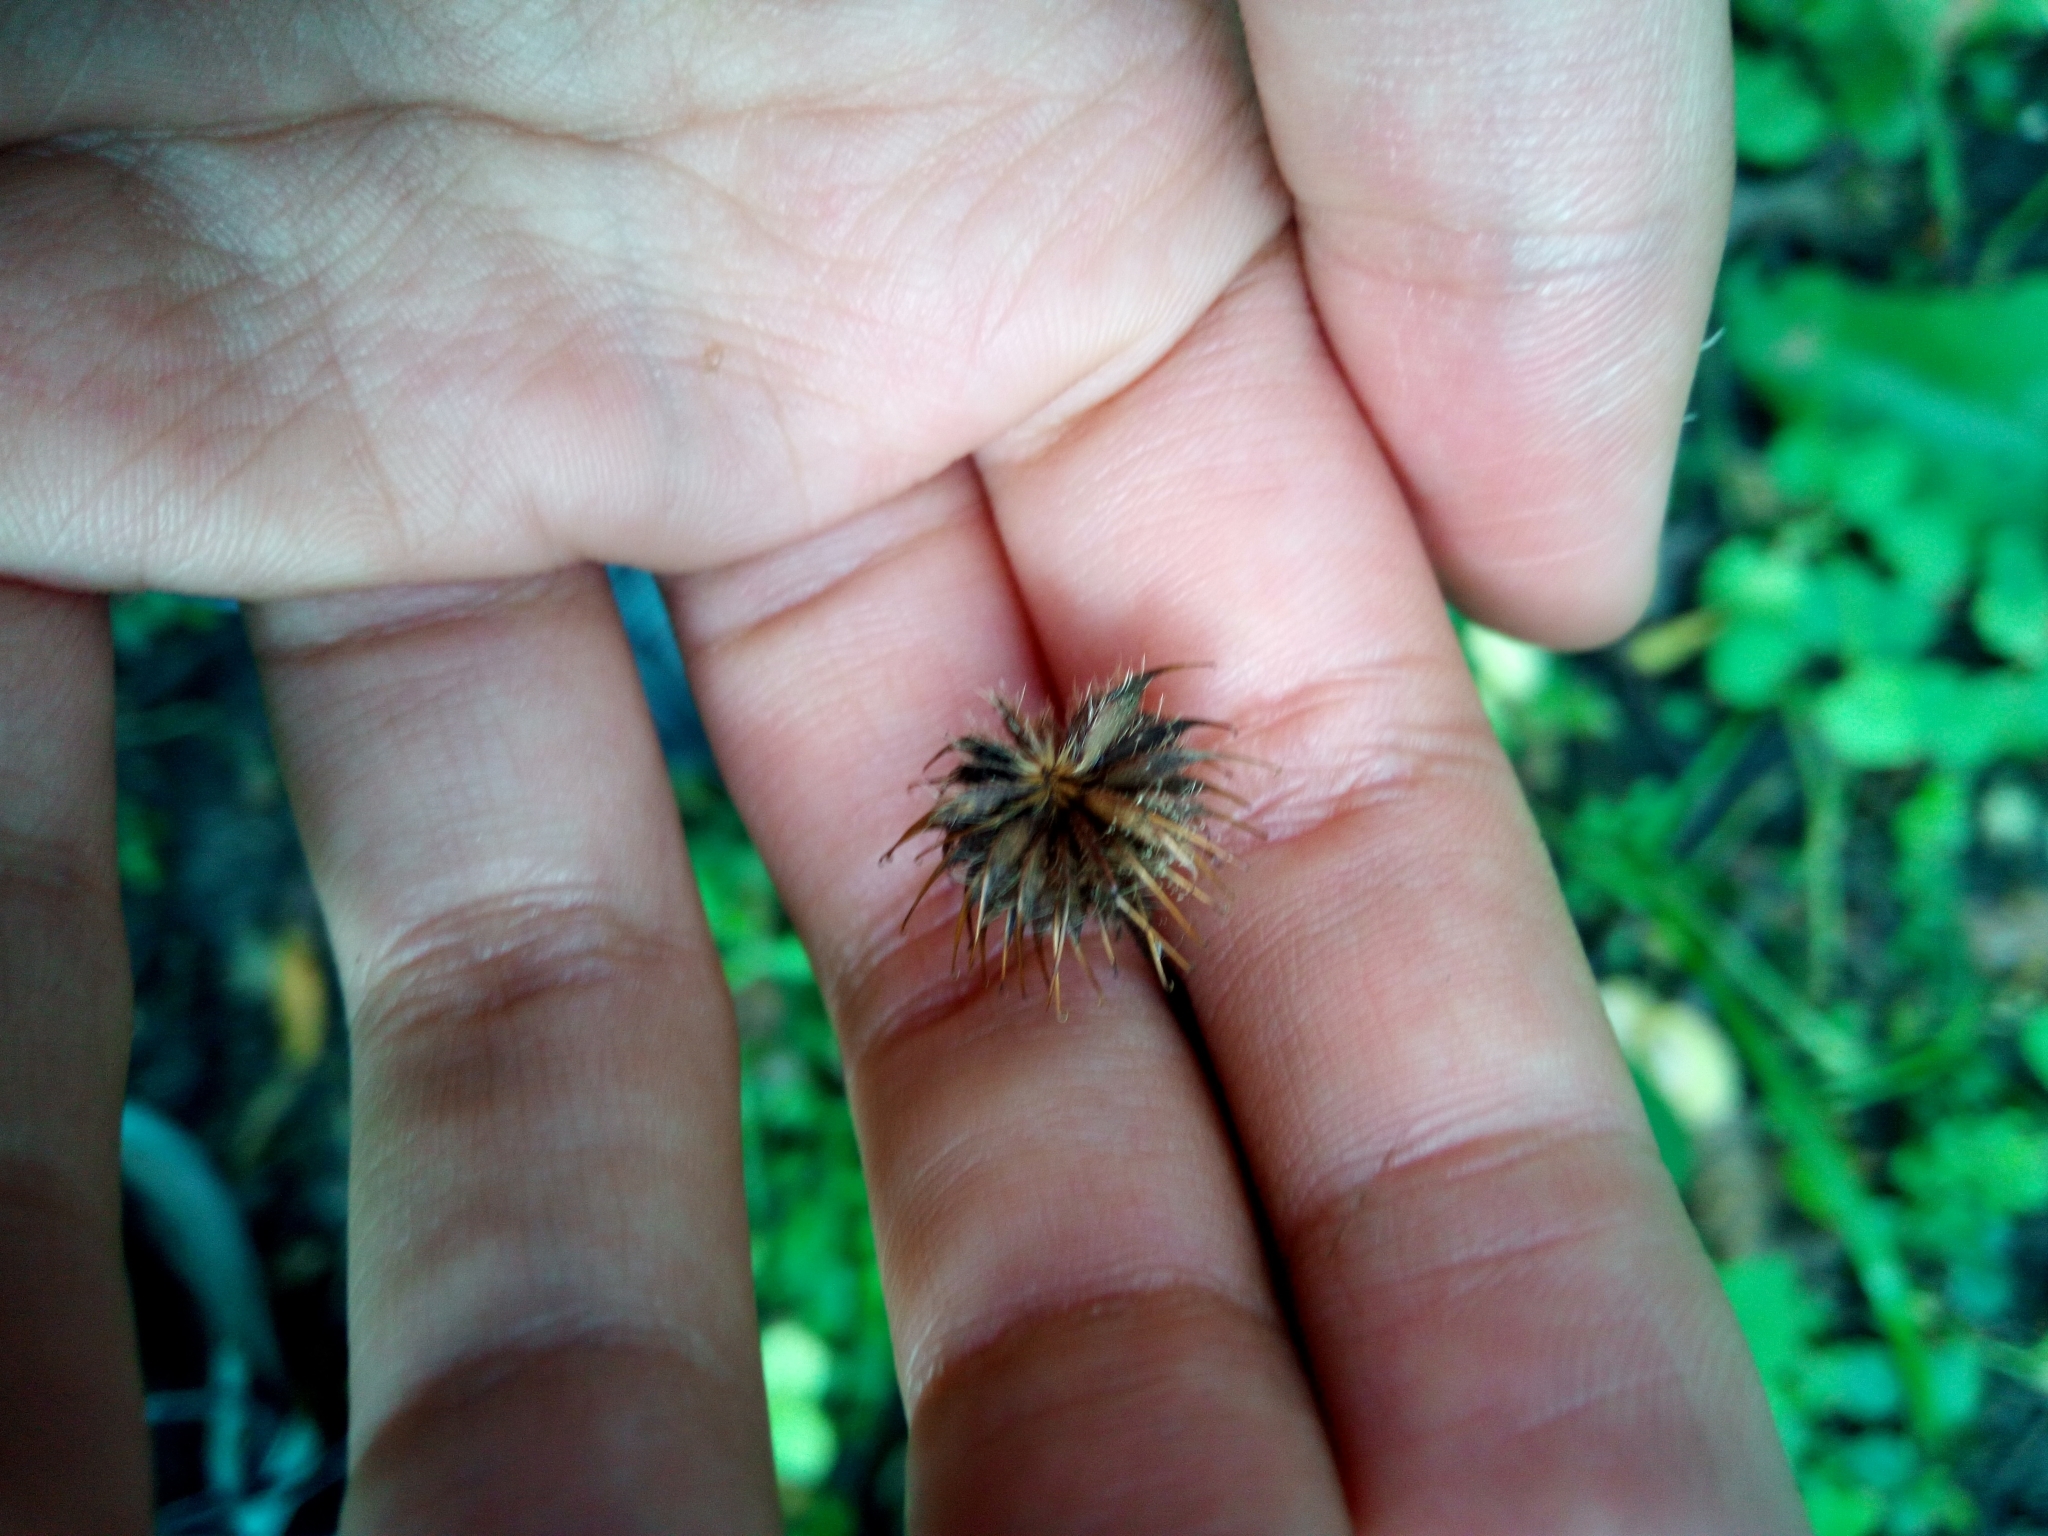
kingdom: Plantae
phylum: Tracheophyta
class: Magnoliopsida
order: Rosales
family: Rosaceae
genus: Geum
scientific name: Geum urbanum
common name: Wood avens
